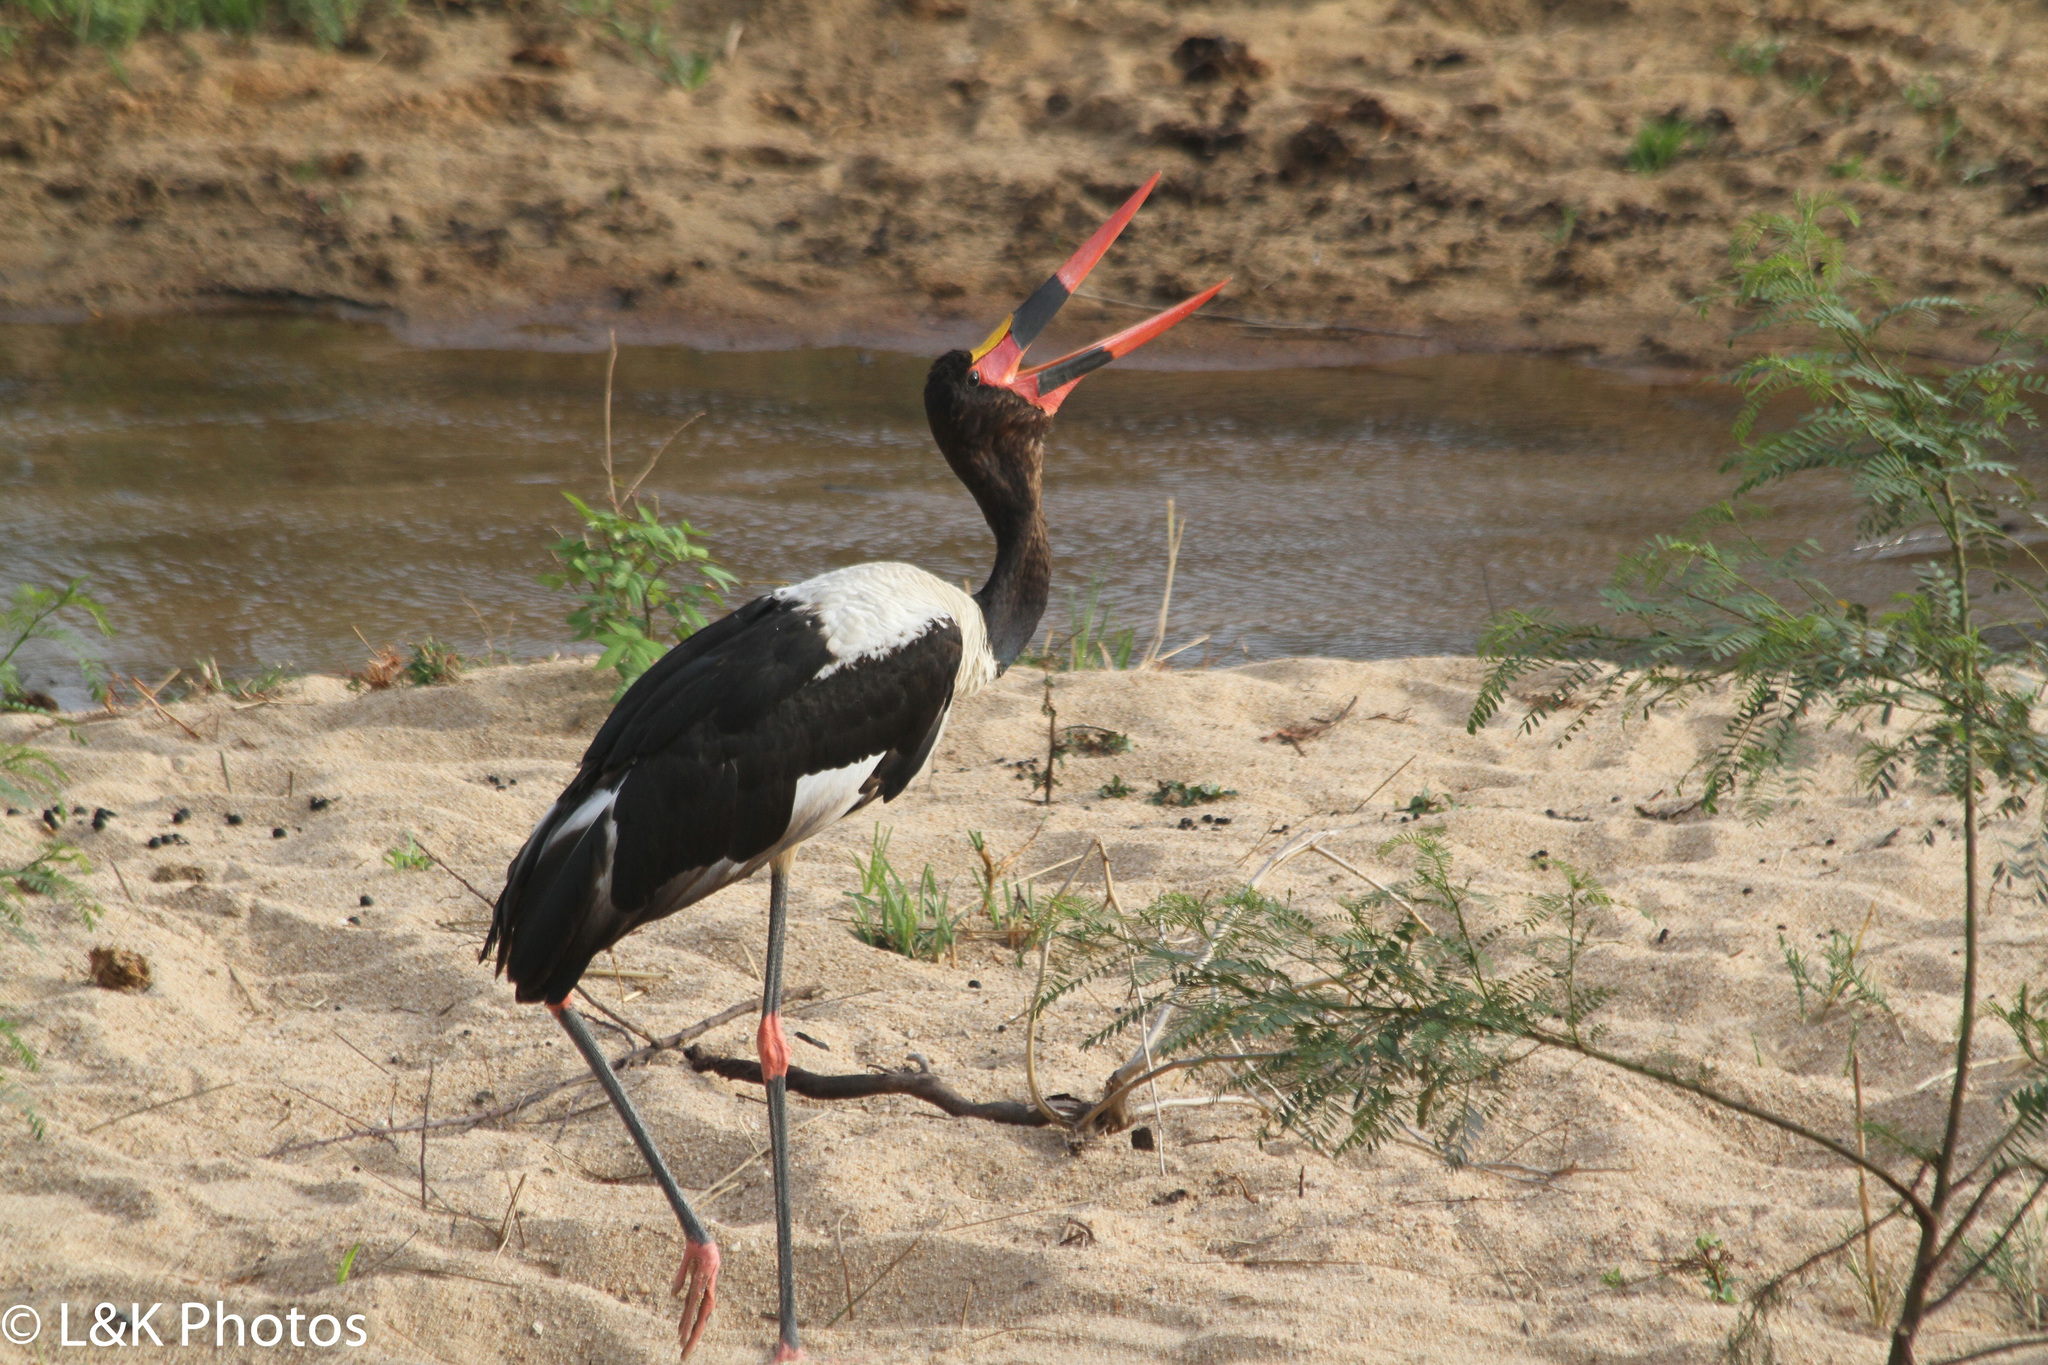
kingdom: Animalia
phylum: Chordata
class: Aves
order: Ciconiiformes
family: Ciconiidae
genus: Ephippiorhynchus
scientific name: Ephippiorhynchus senegalensis
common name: Saddle-billed stork
